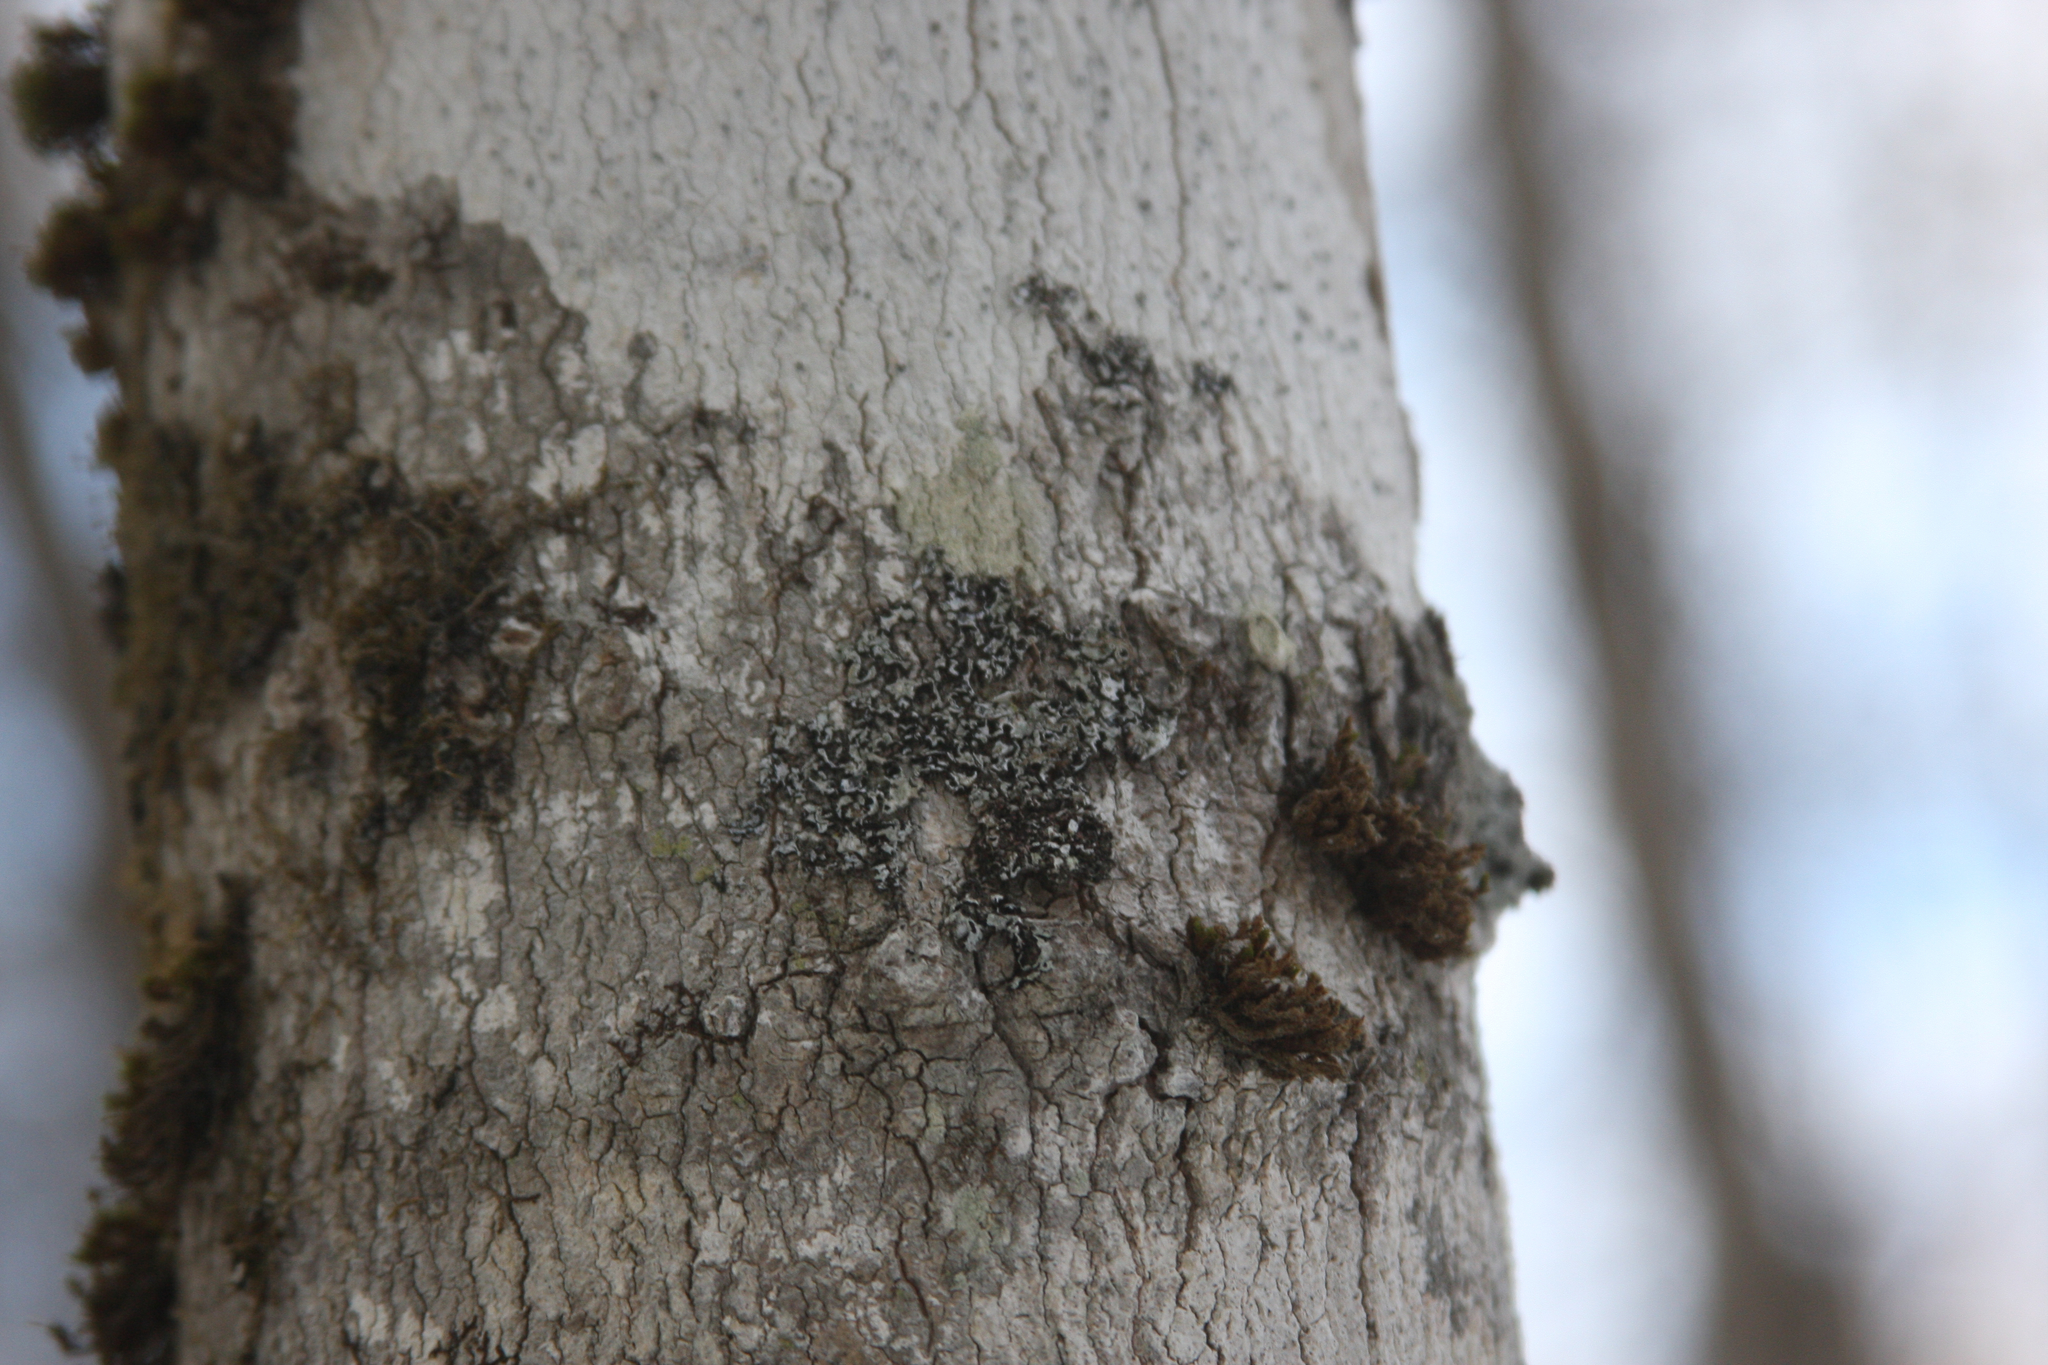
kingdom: Plantae
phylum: Bryophyta
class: Bryopsida
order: Orthotrichales
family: Orthotrichaceae
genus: Ulota
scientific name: Ulota crispa
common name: Crisped pincushion moss
